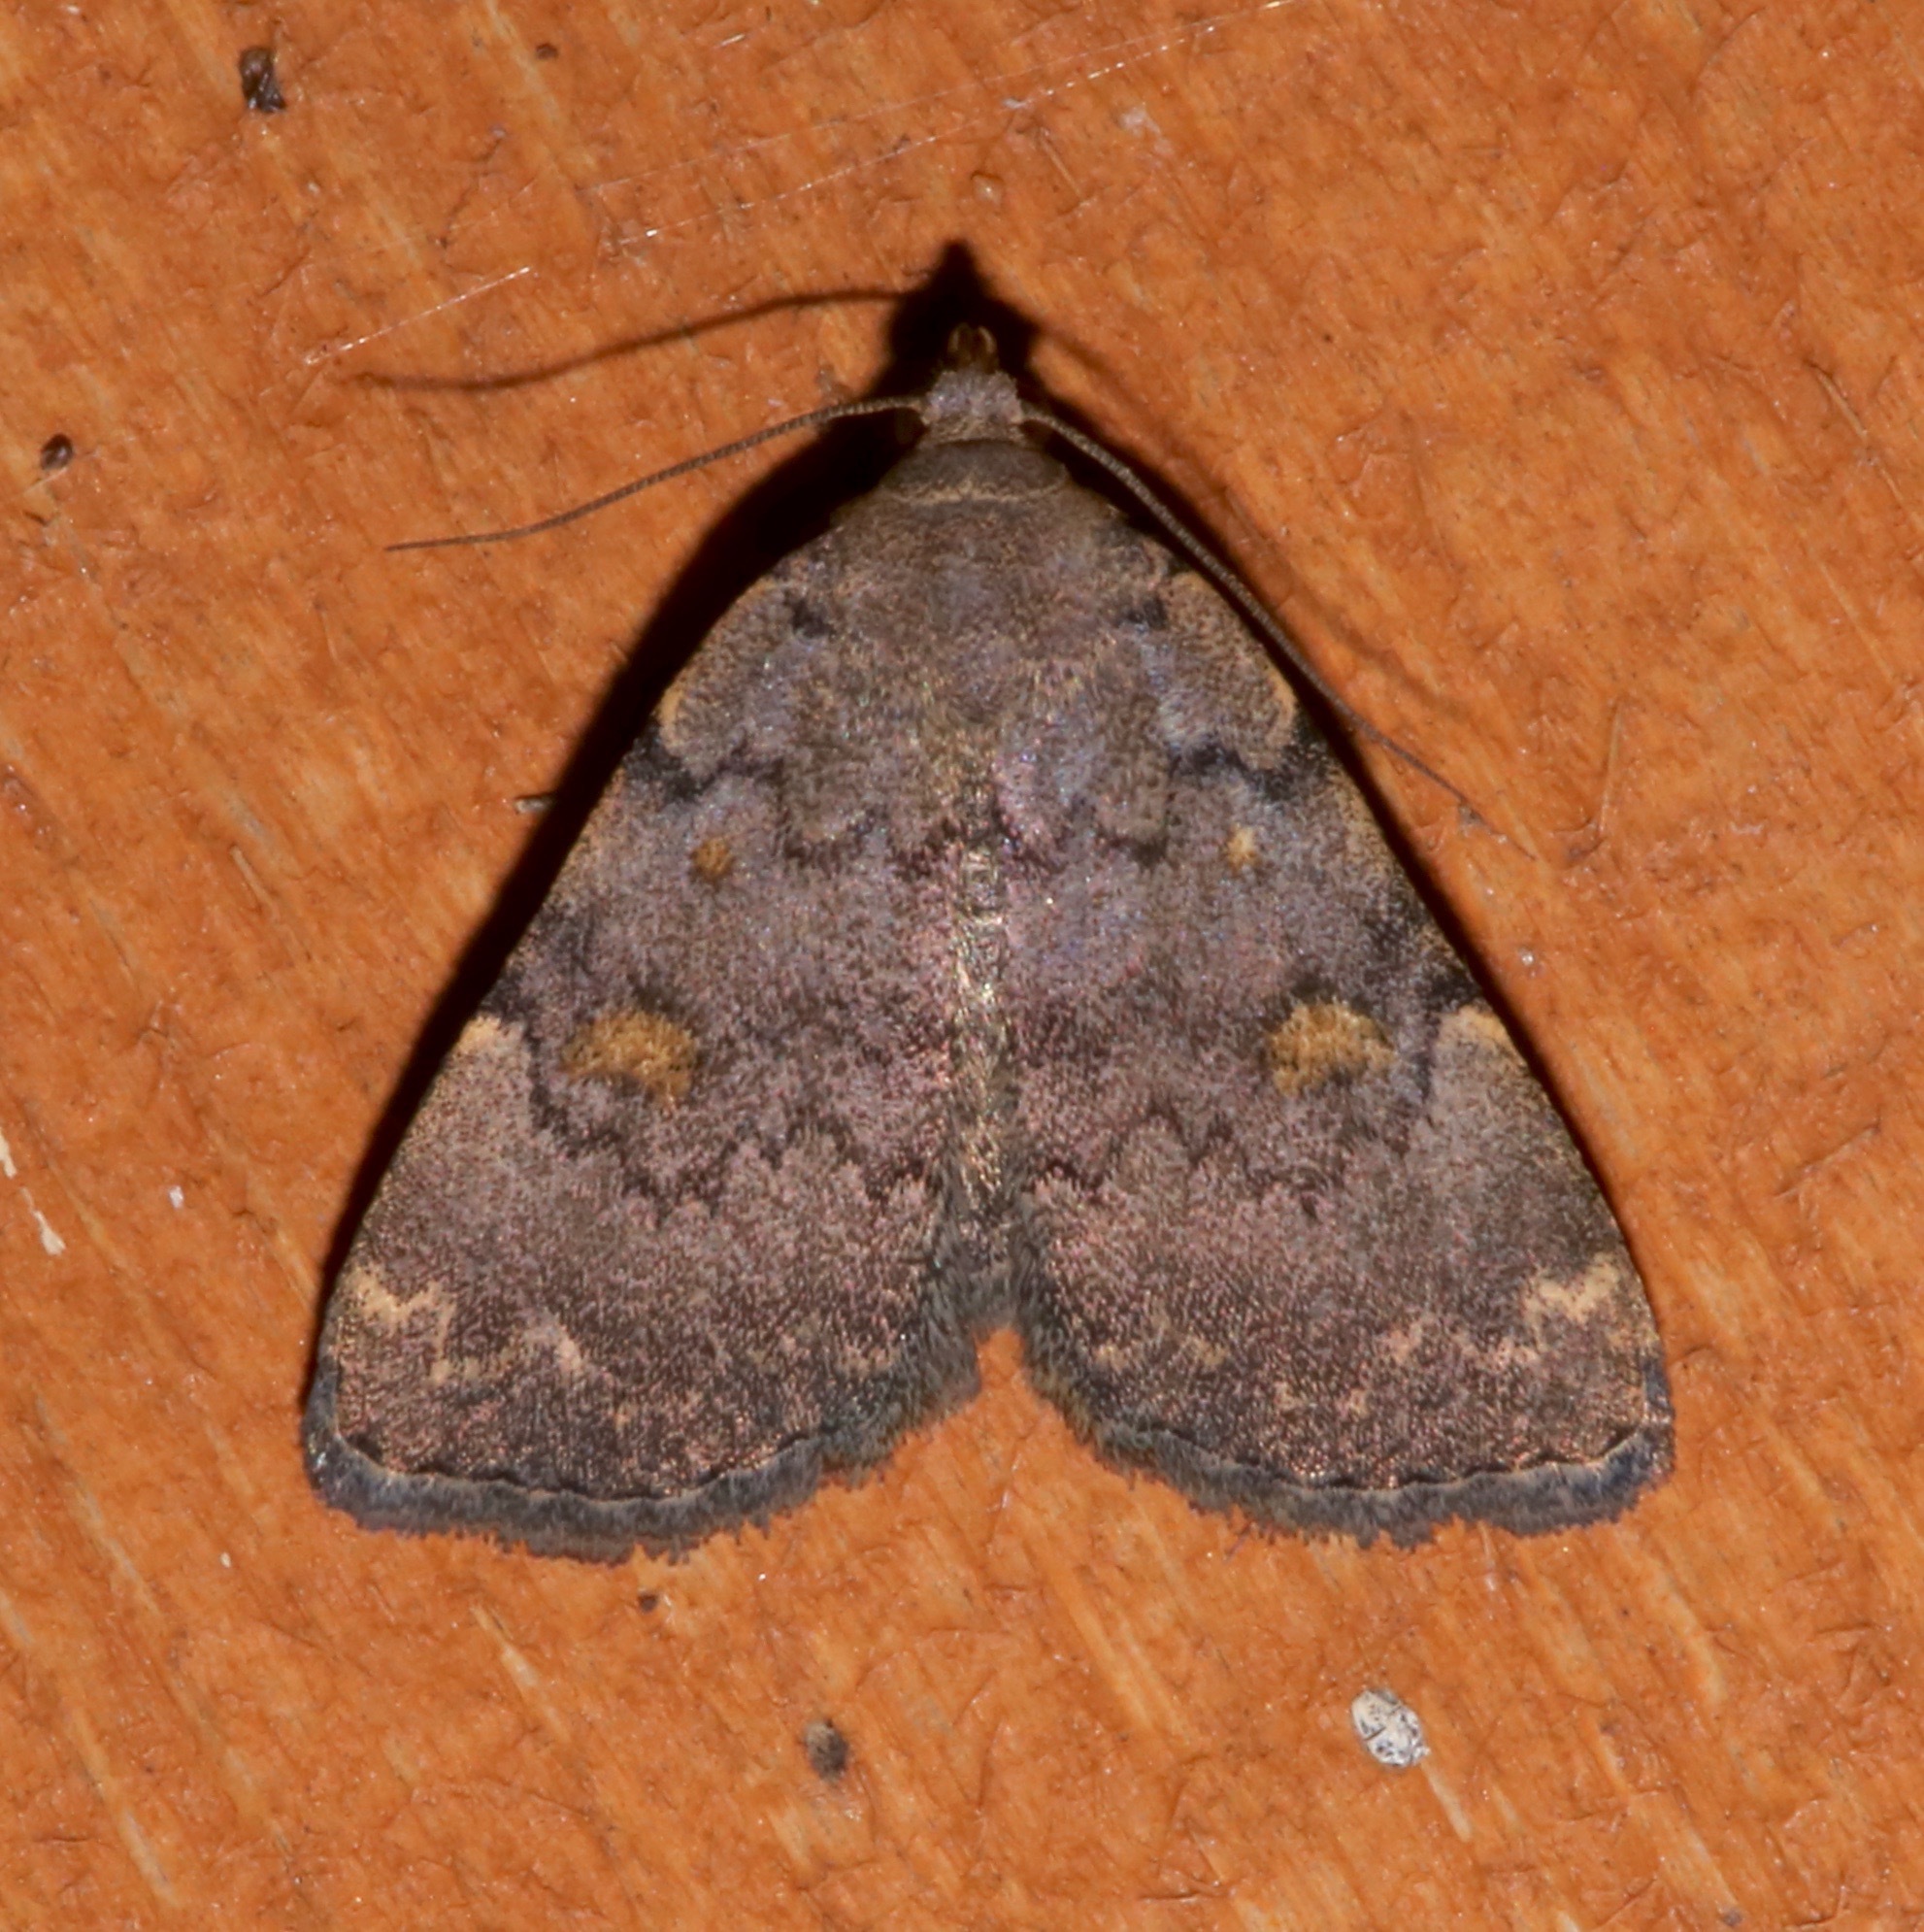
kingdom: Animalia
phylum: Arthropoda
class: Insecta
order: Lepidoptera
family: Erebidae
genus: Idia
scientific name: Idia aemula
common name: Common idia moth
